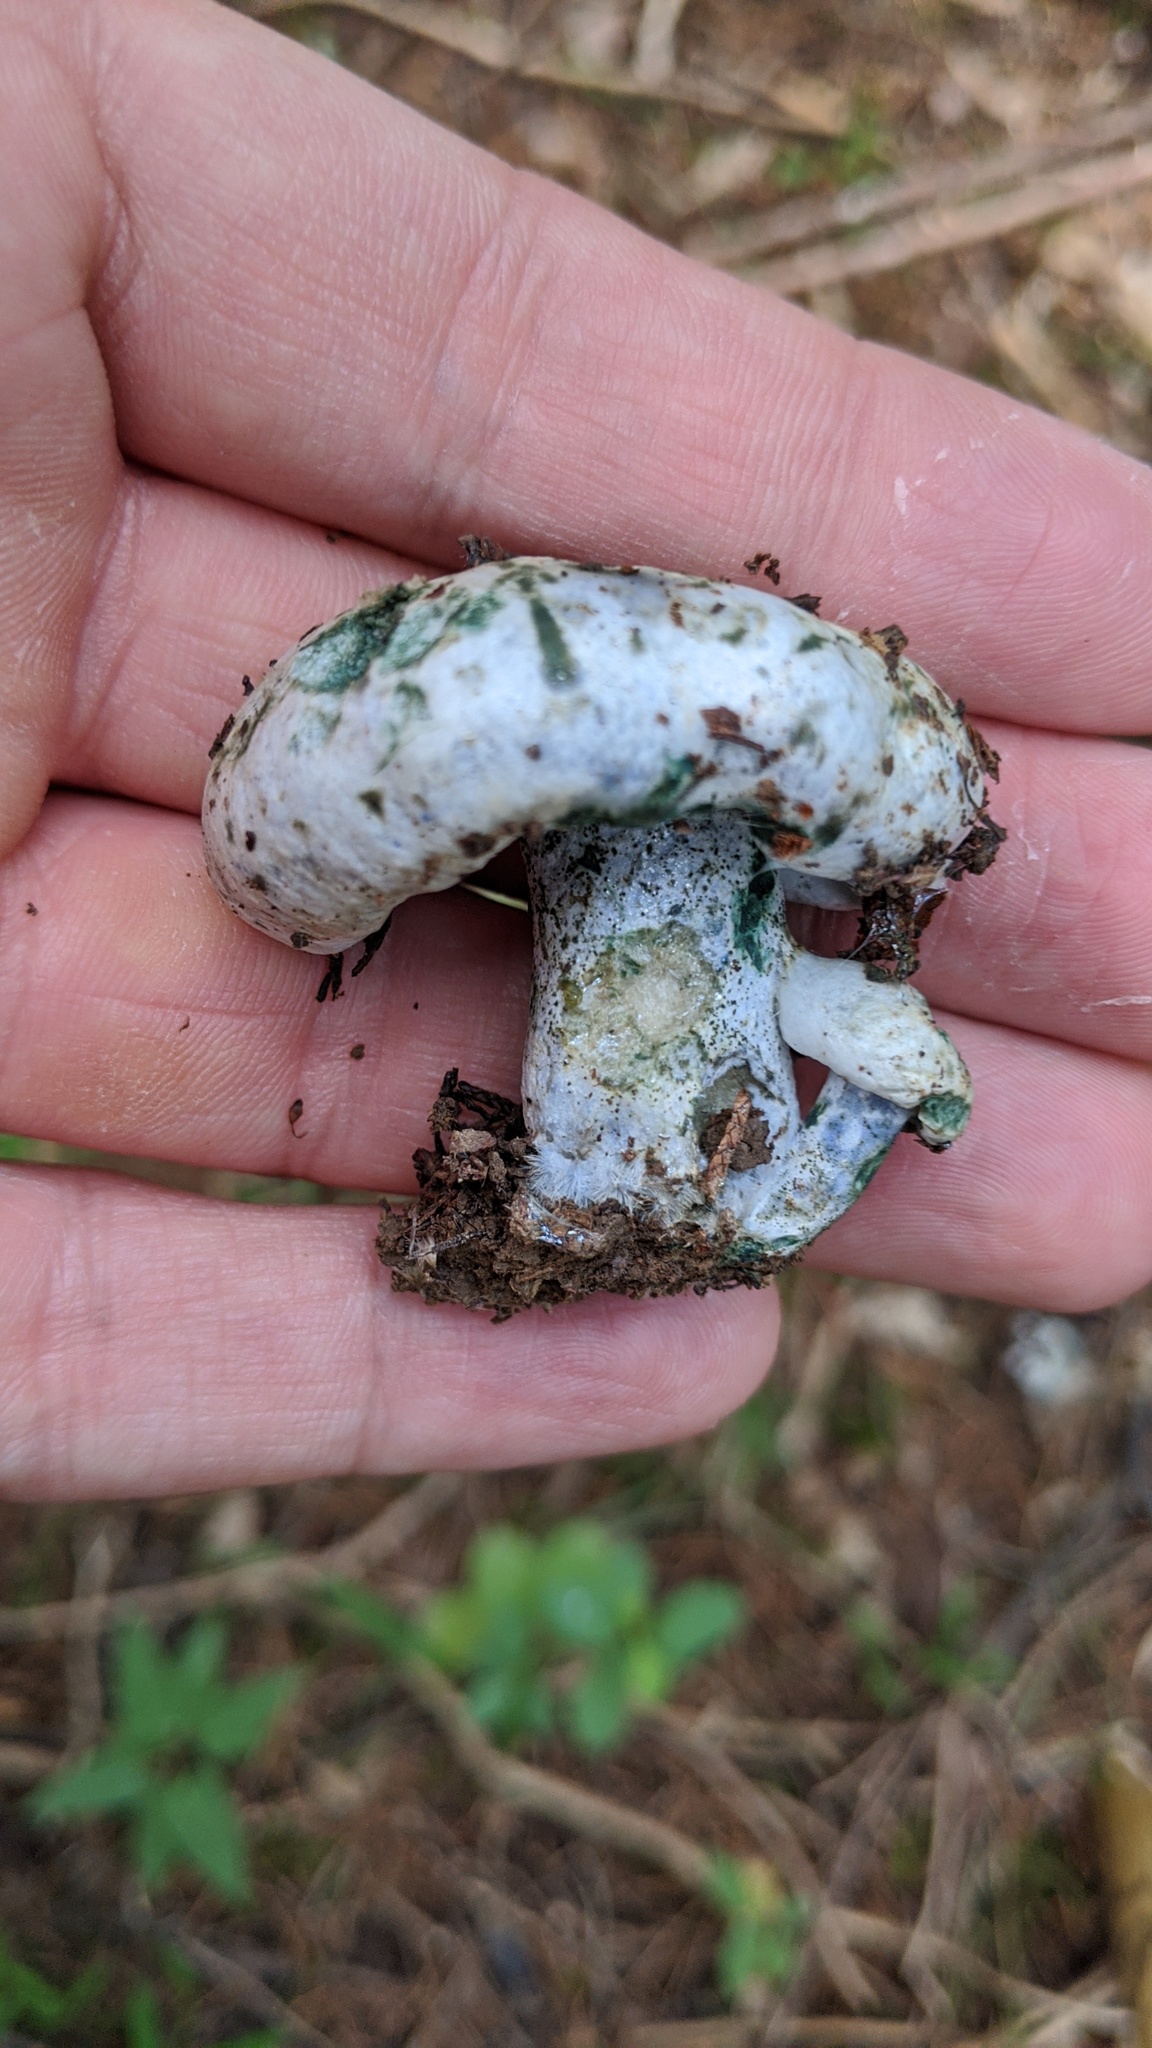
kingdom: Fungi
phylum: Basidiomycota
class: Agaricomycetes
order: Russulales
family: Russulaceae
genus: Lactarius
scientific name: Lactarius indigo
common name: Indigo milk cap
